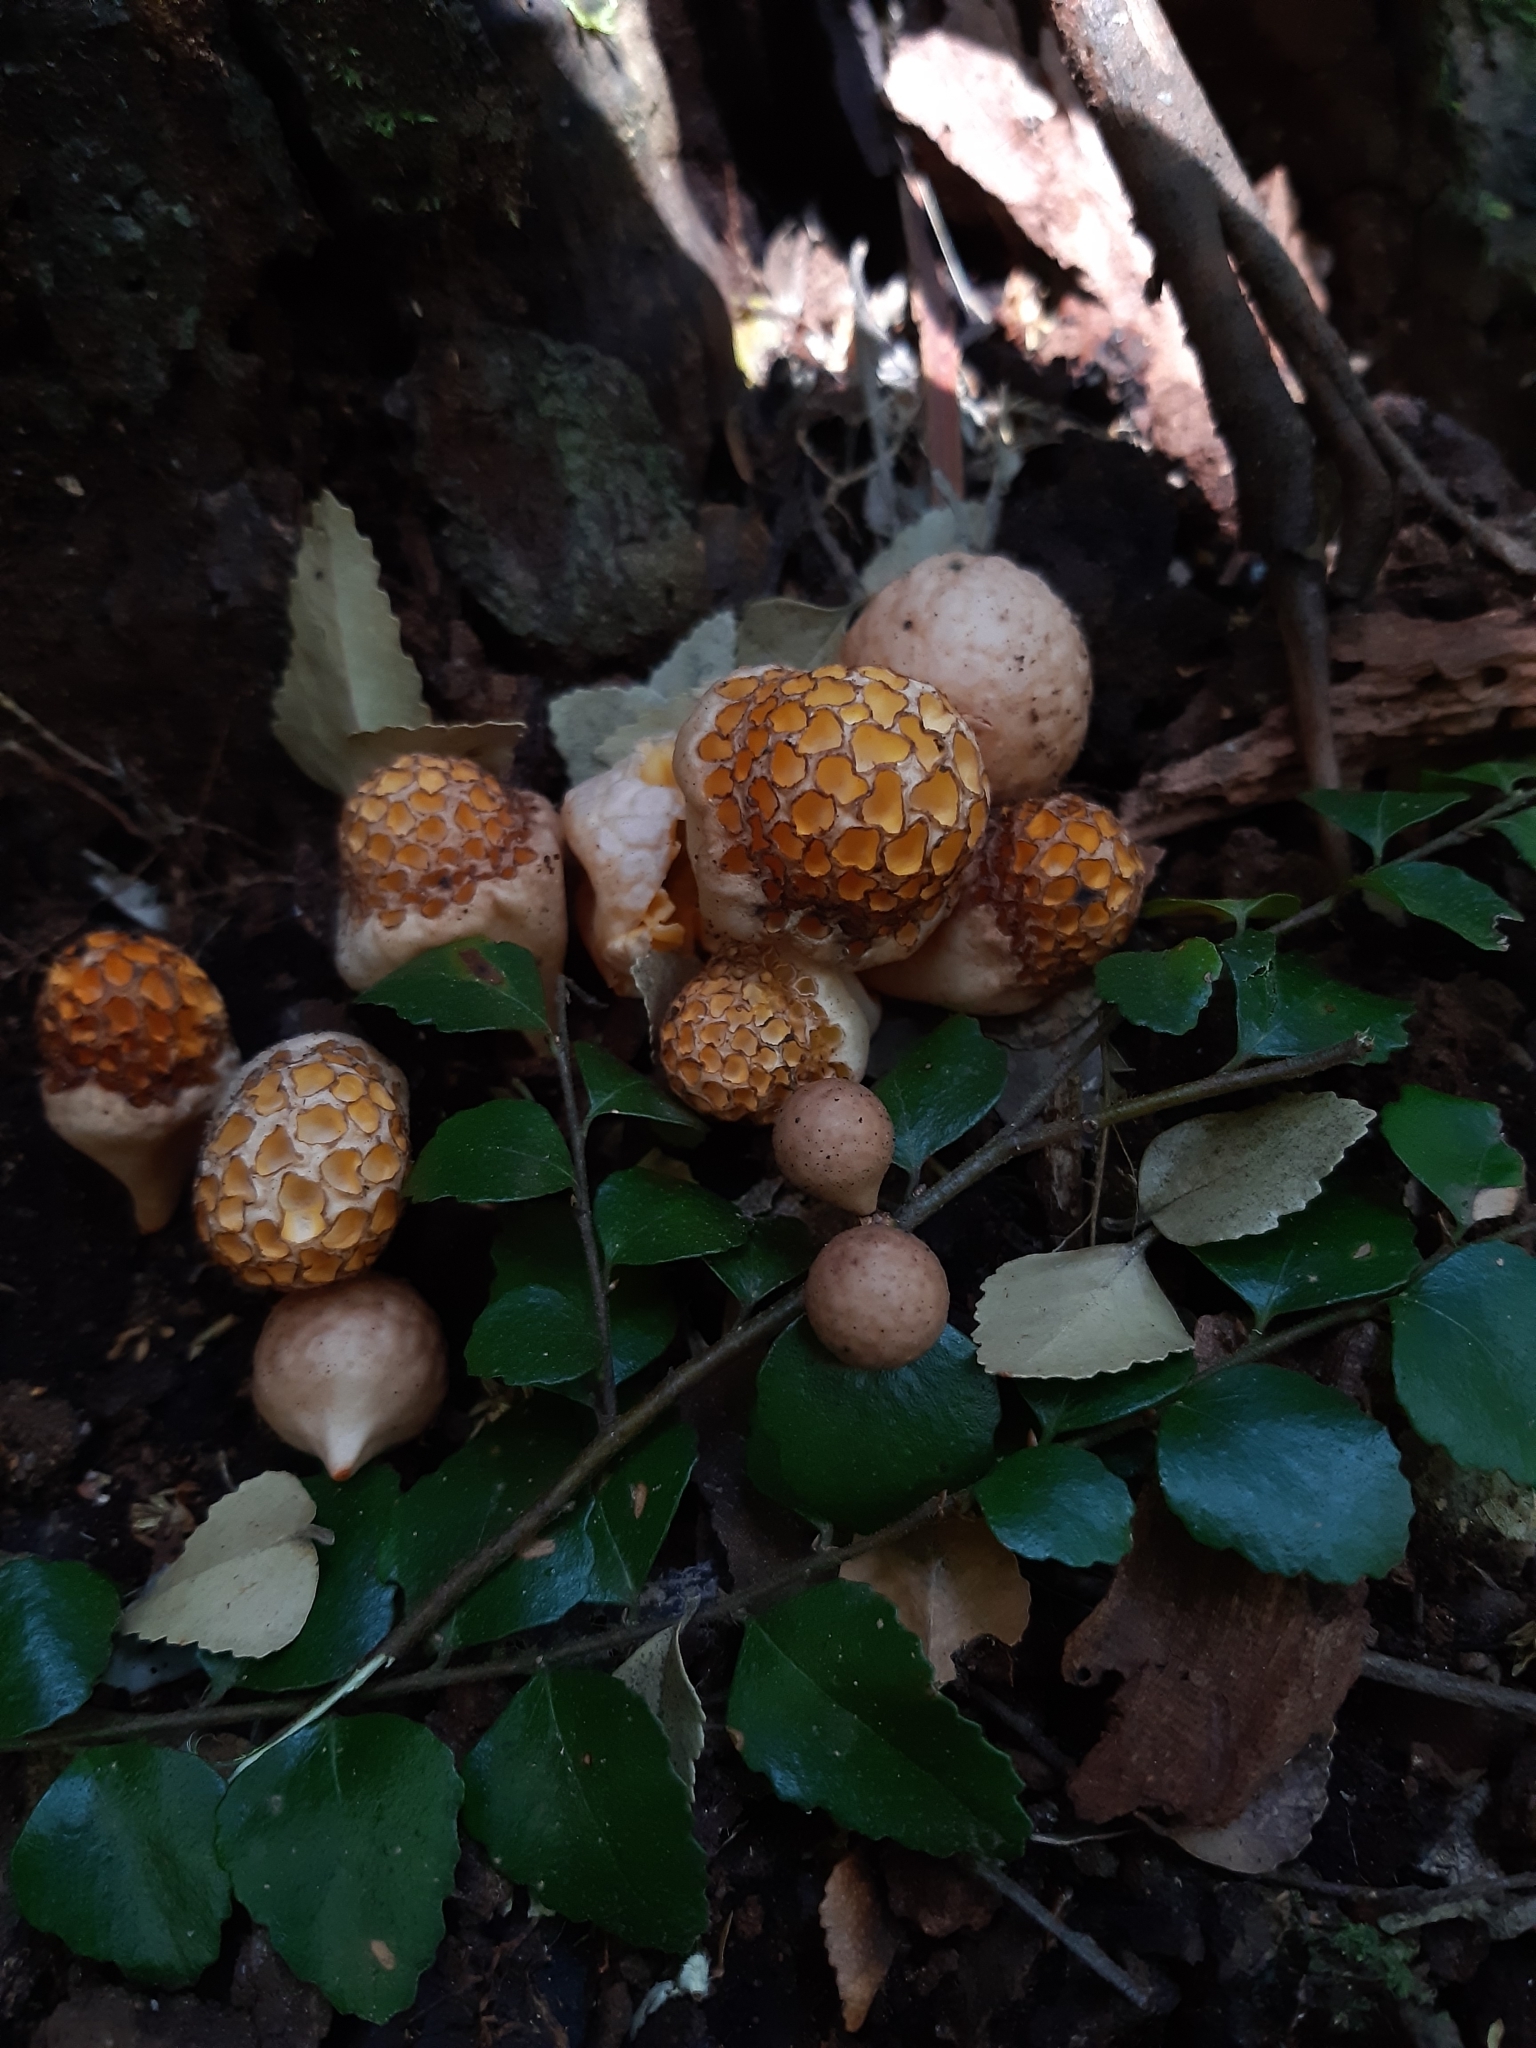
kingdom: Fungi
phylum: Ascomycota
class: Leotiomycetes
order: Cyttariales
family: Cyttariaceae
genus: Cyttaria
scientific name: Cyttaria gunnii
